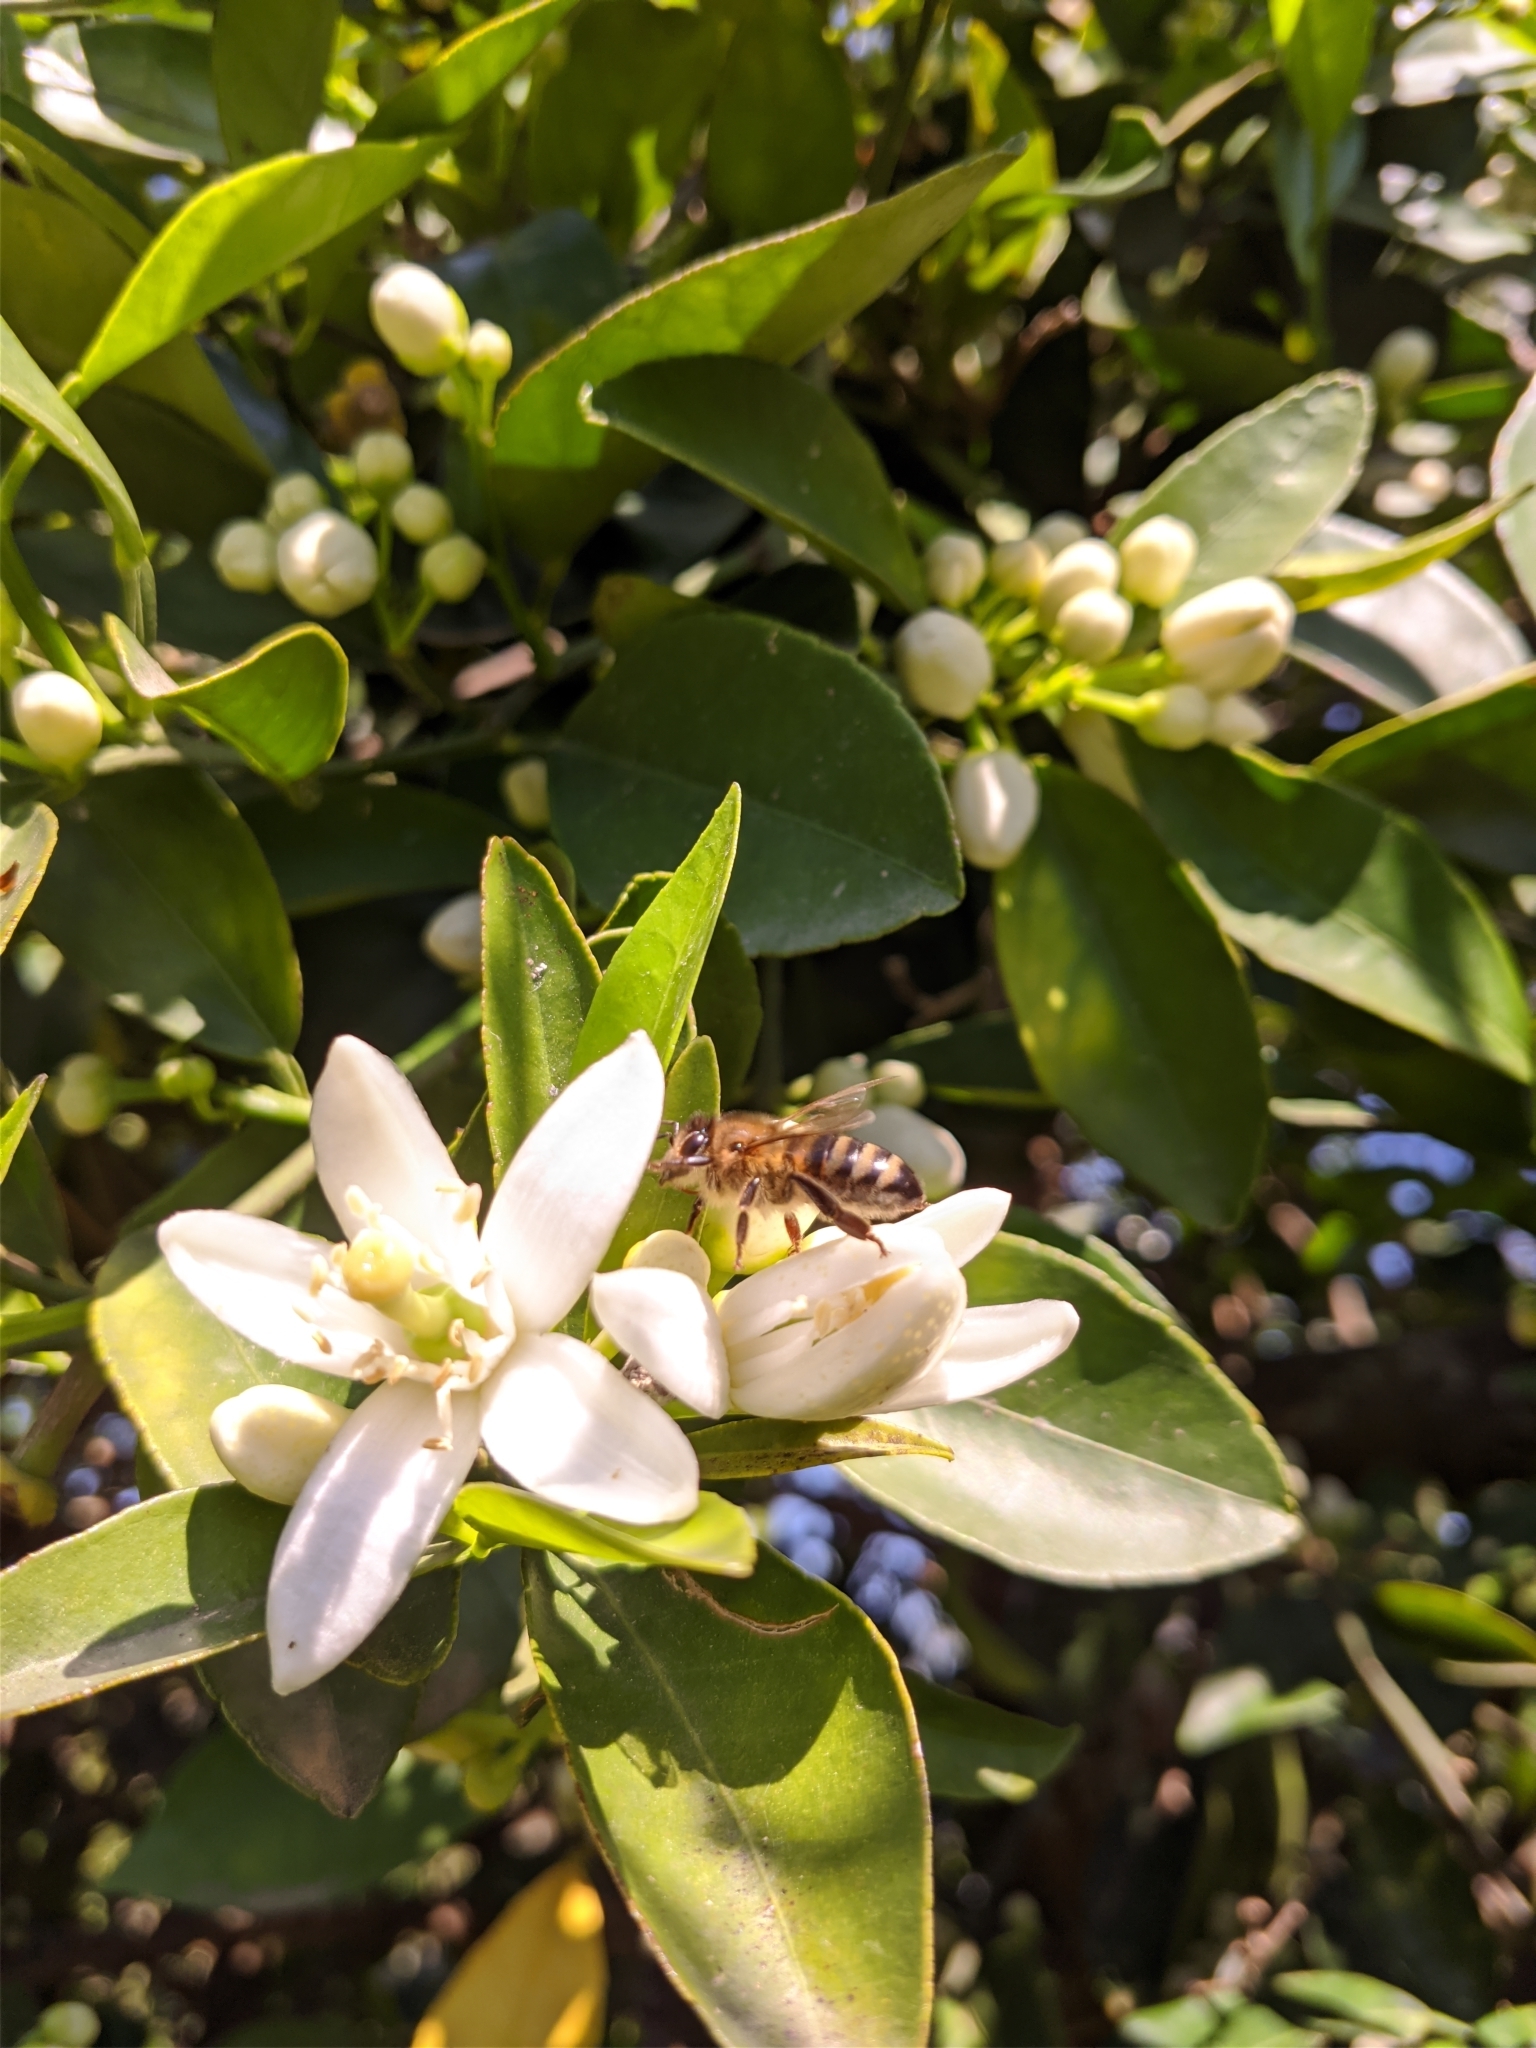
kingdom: Animalia
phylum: Arthropoda
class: Insecta
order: Hymenoptera
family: Apidae
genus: Apis
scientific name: Apis mellifera
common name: Honey bee
